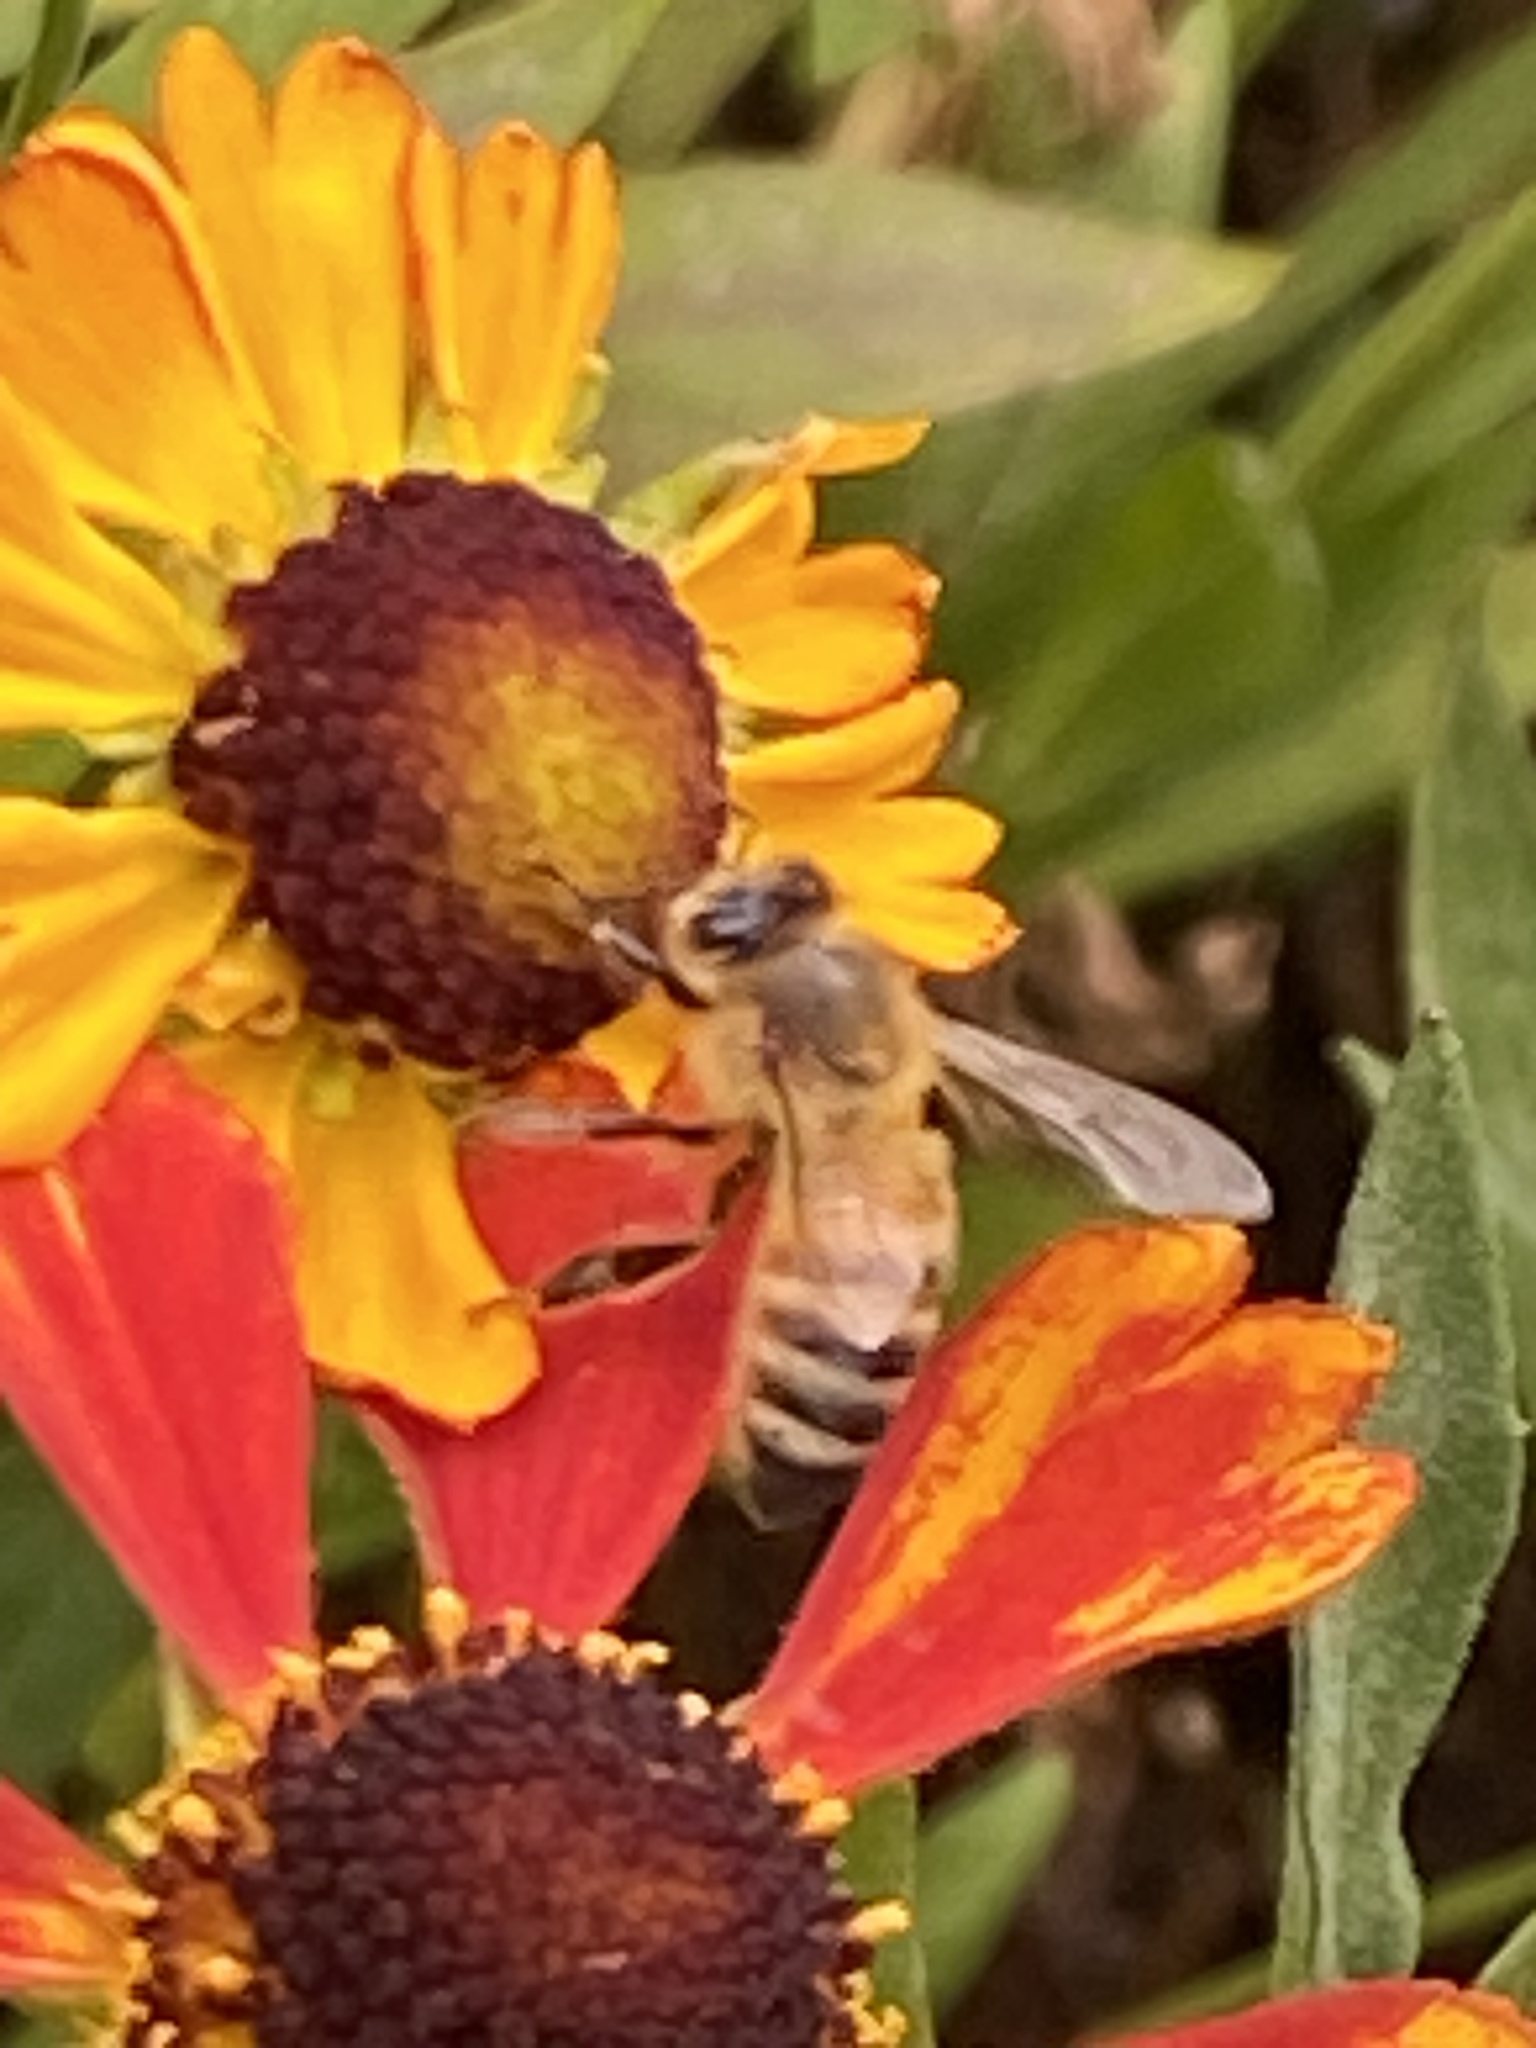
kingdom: Animalia
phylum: Arthropoda
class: Insecta
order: Hymenoptera
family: Apidae
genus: Apis
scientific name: Apis mellifera
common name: Honey bee
